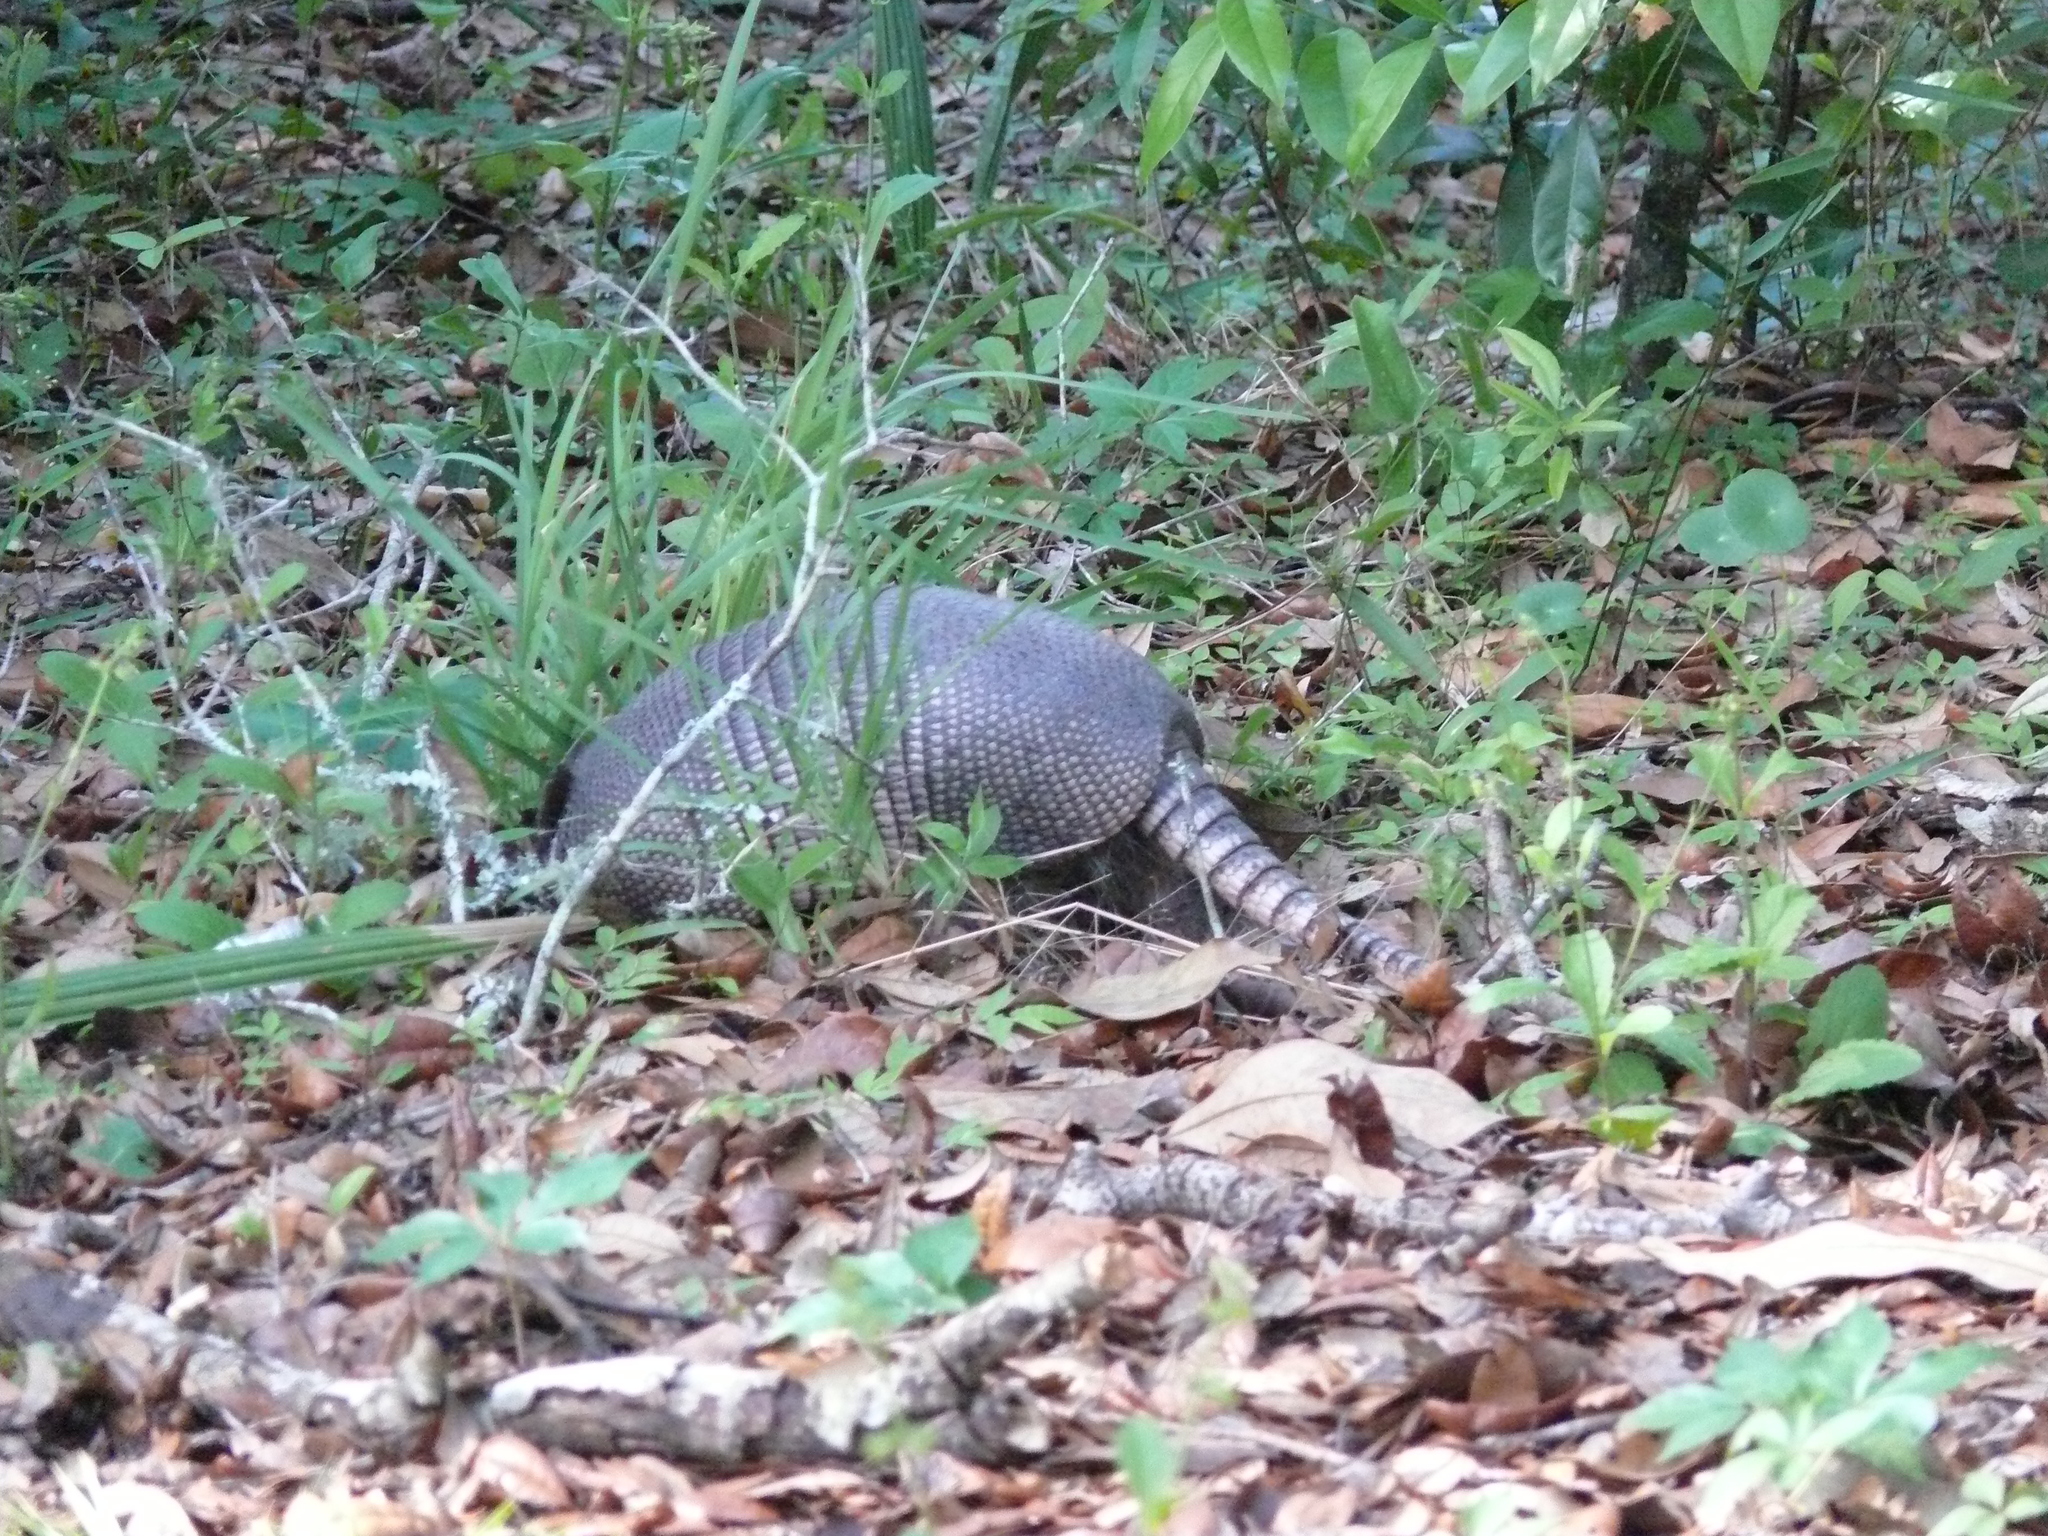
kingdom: Animalia
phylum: Chordata
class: Mammalia
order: Cingulata
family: Dasypodidae
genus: Dasypus
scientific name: Dasypus novemcinctus
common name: Nine-banded armadillo
